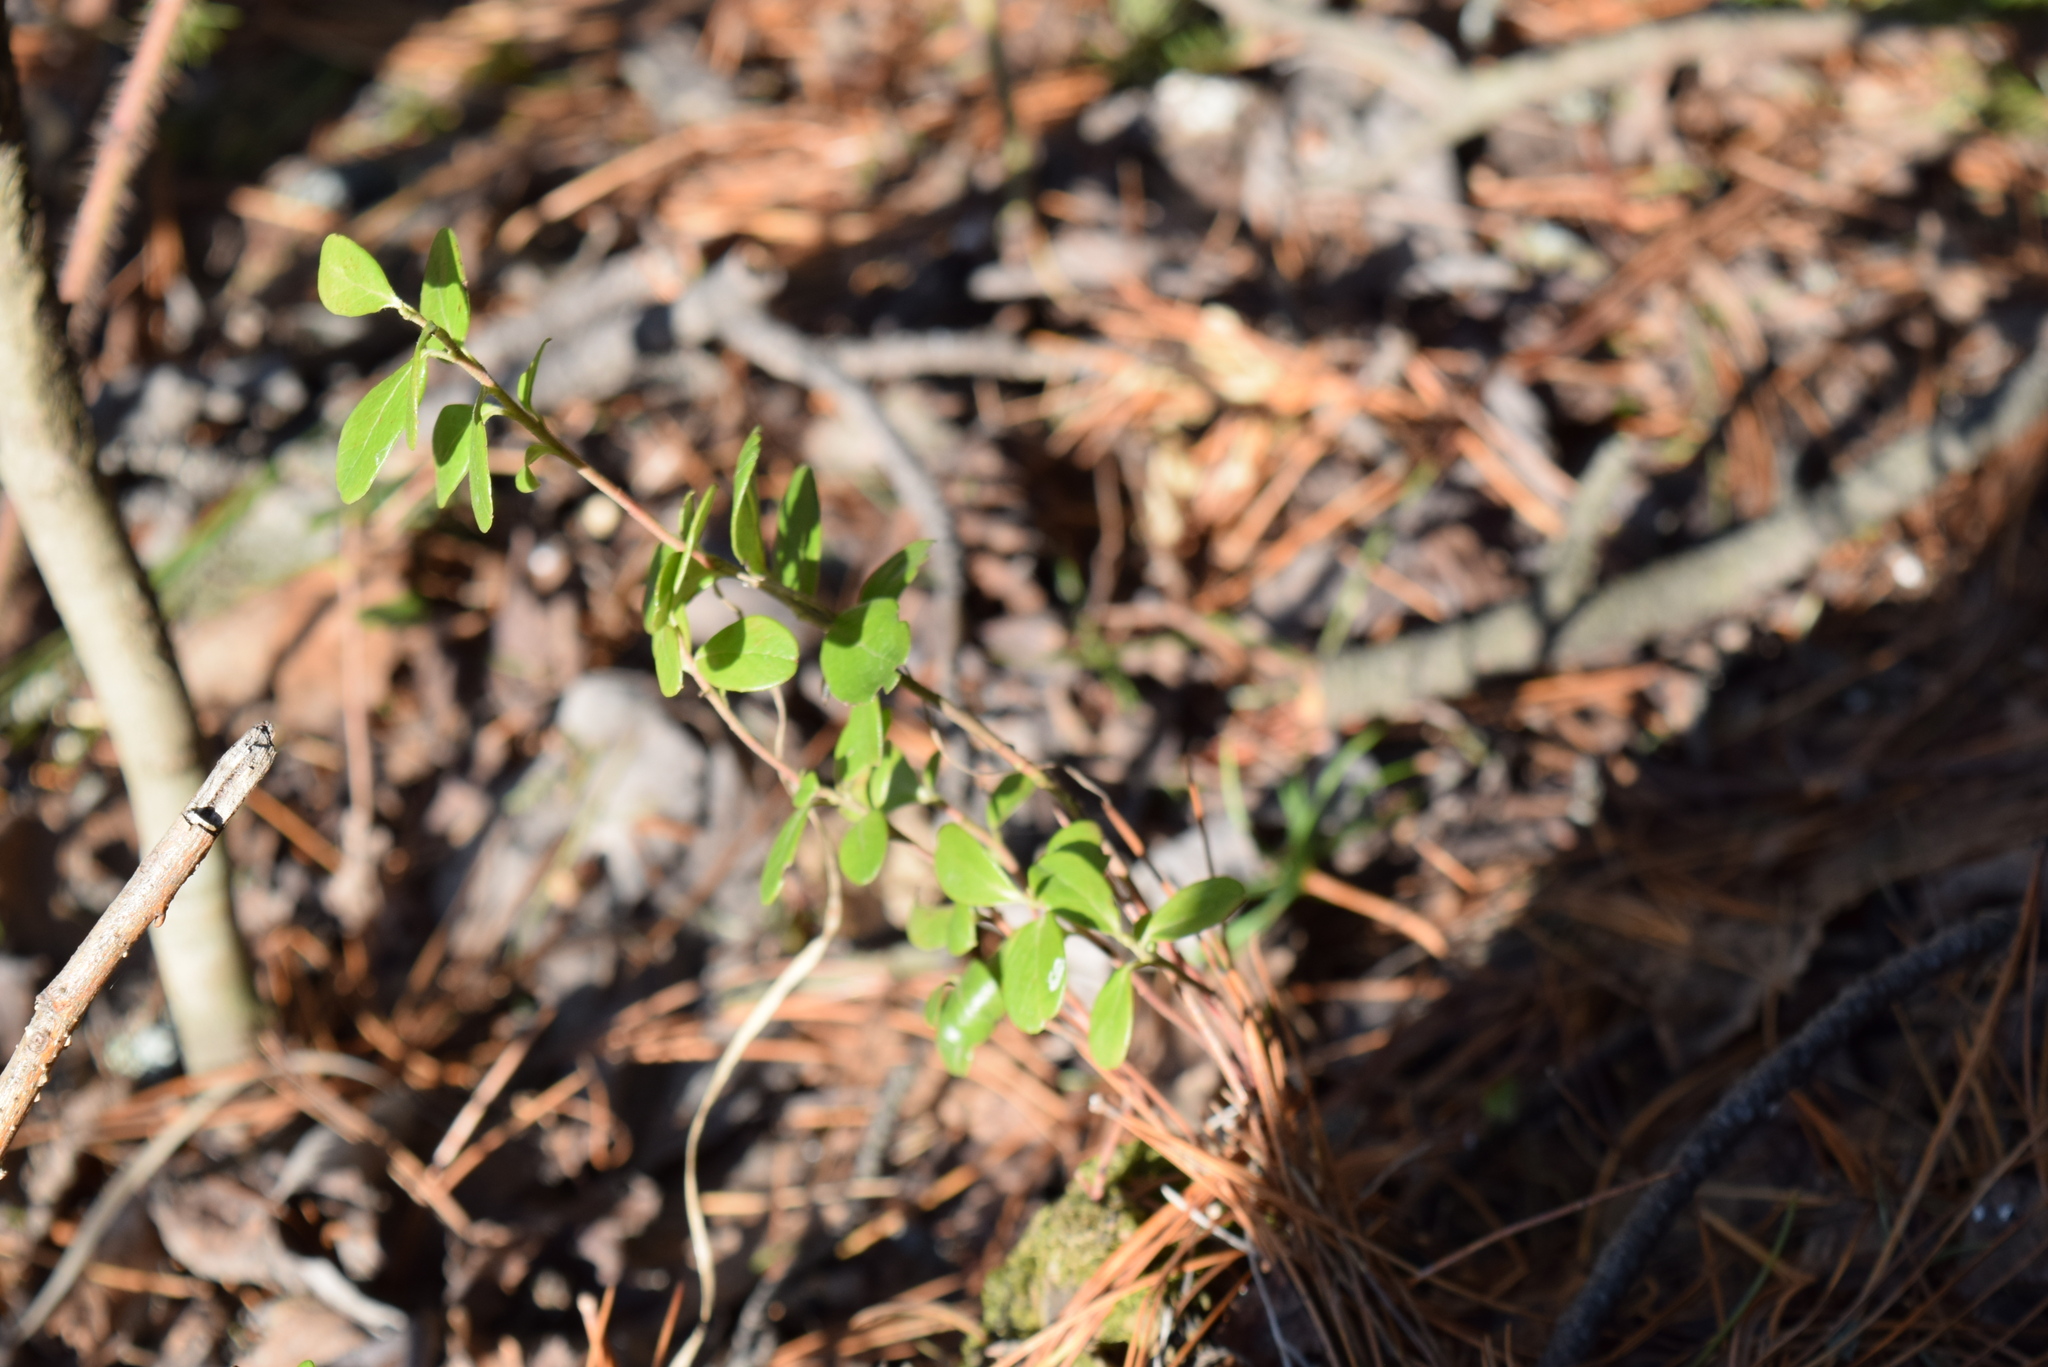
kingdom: Plantae
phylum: Tracheophyta
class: Magnoliopsida
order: Ericales
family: Ericaceae
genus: Vaccinium
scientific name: Vaccinium vitis-idaea
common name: Cowberry
